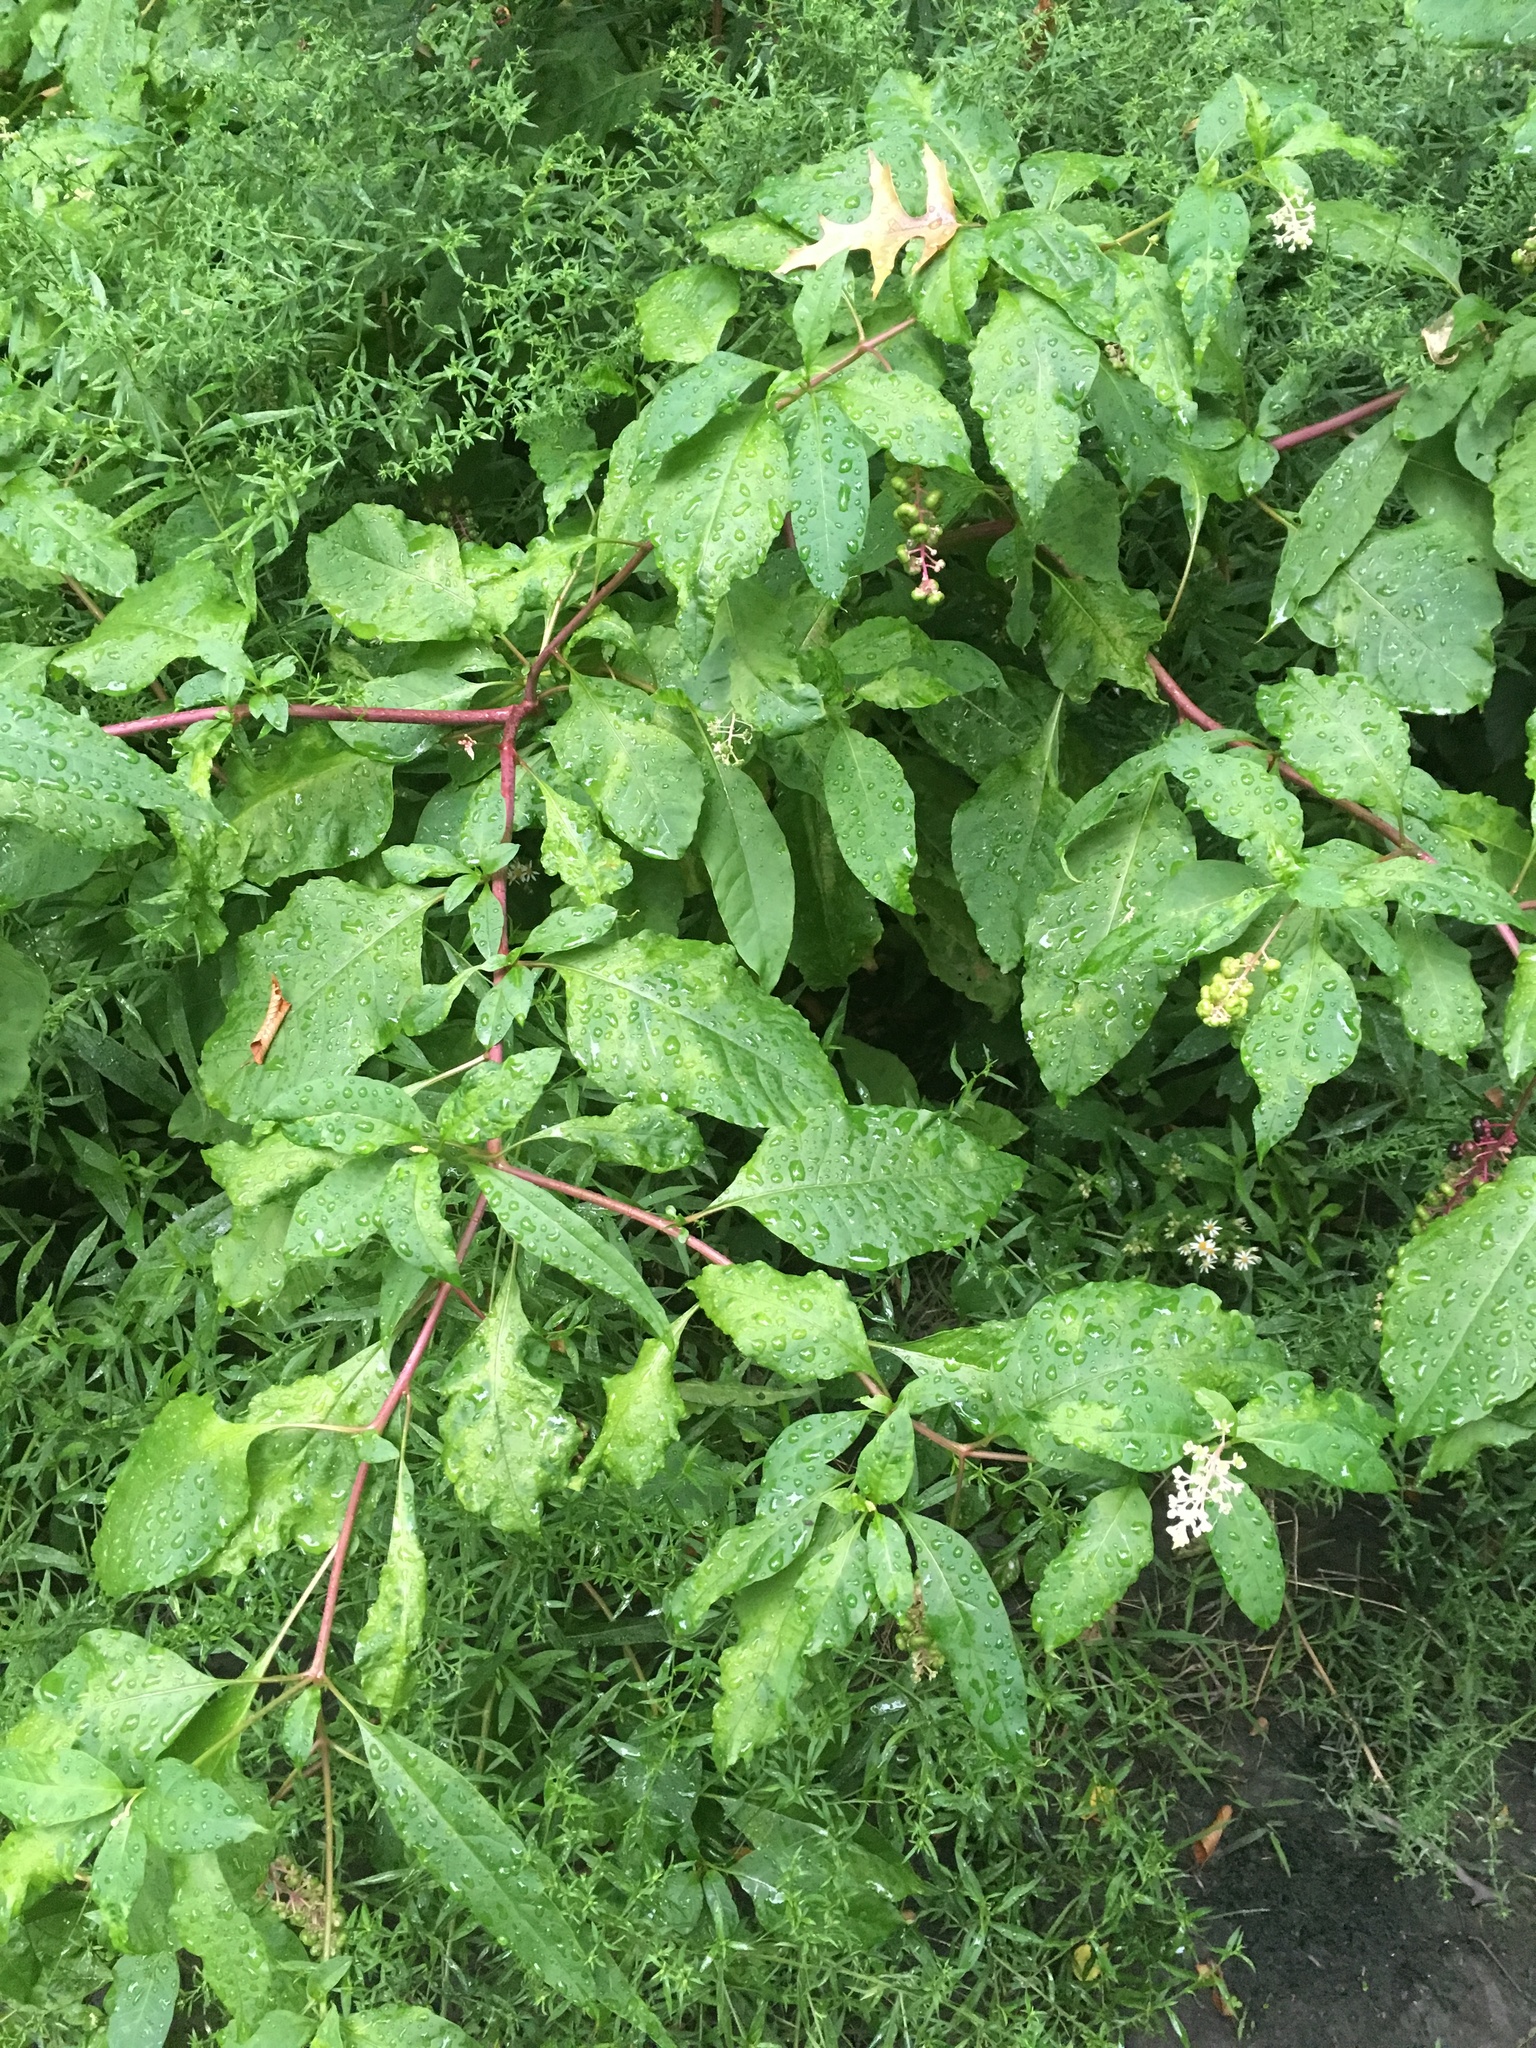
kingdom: Plantae
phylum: Tracheophyta
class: Magnoliopsida
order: Caryophyllales
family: Phytolaccaceae
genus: Phytolacca
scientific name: Phytolacca americana
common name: American pokeweed
